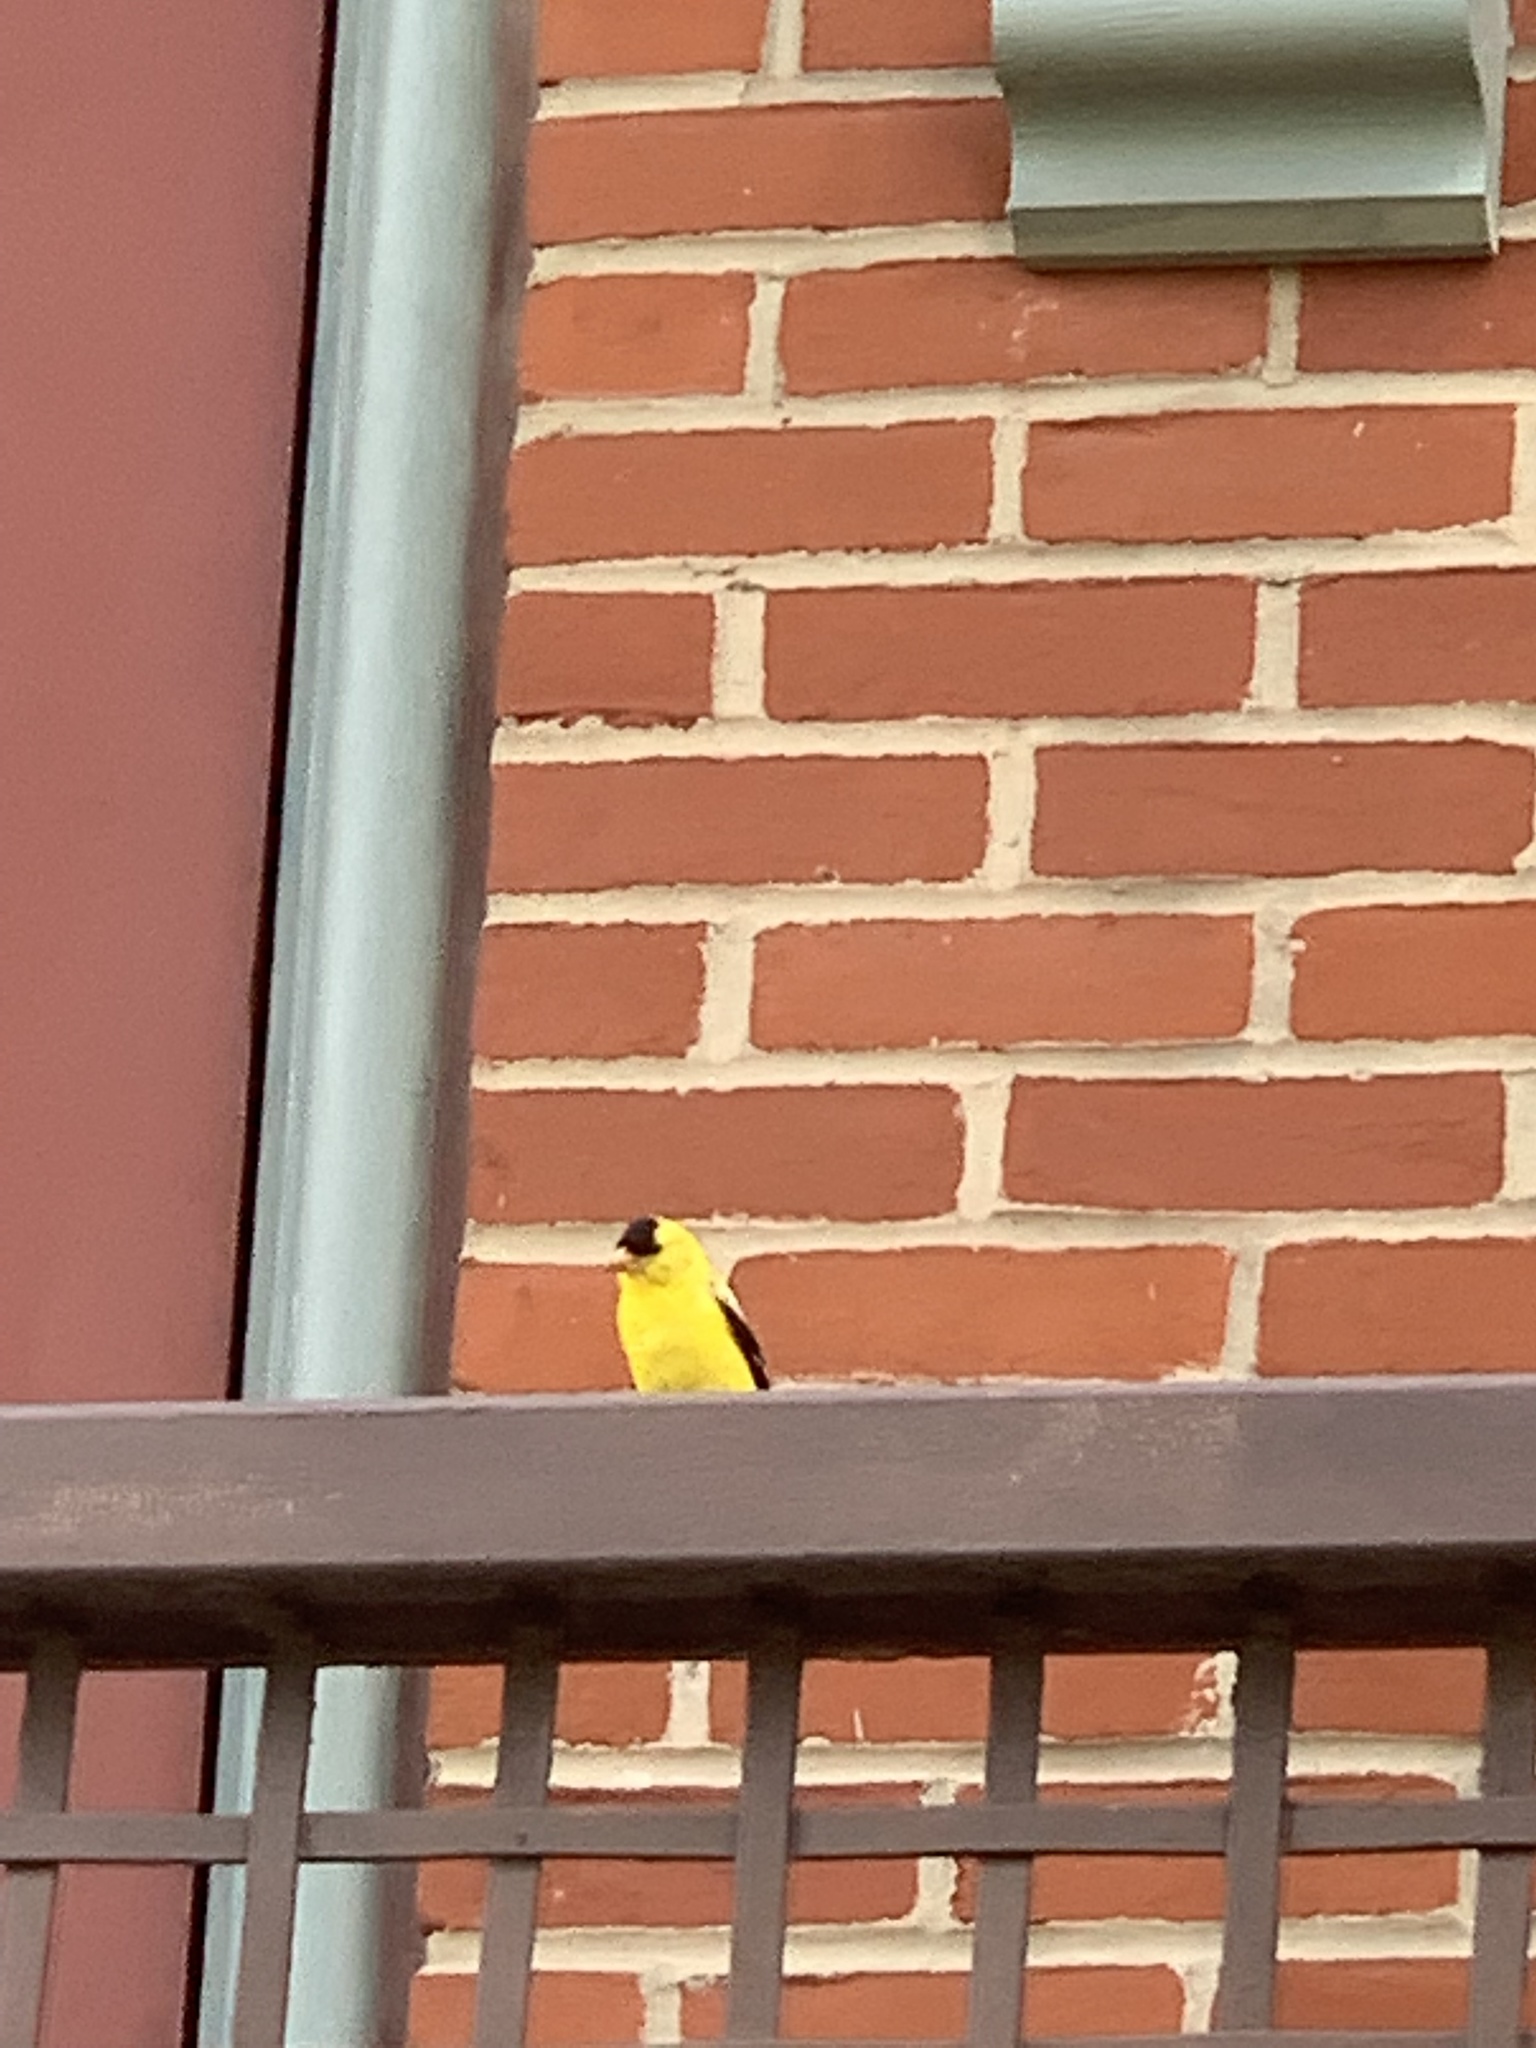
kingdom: Animalia
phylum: Chordata
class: Aves
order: Passeriformes
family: Fringillidae
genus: Spinus
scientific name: Spinus tristis
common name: American goldfinch
